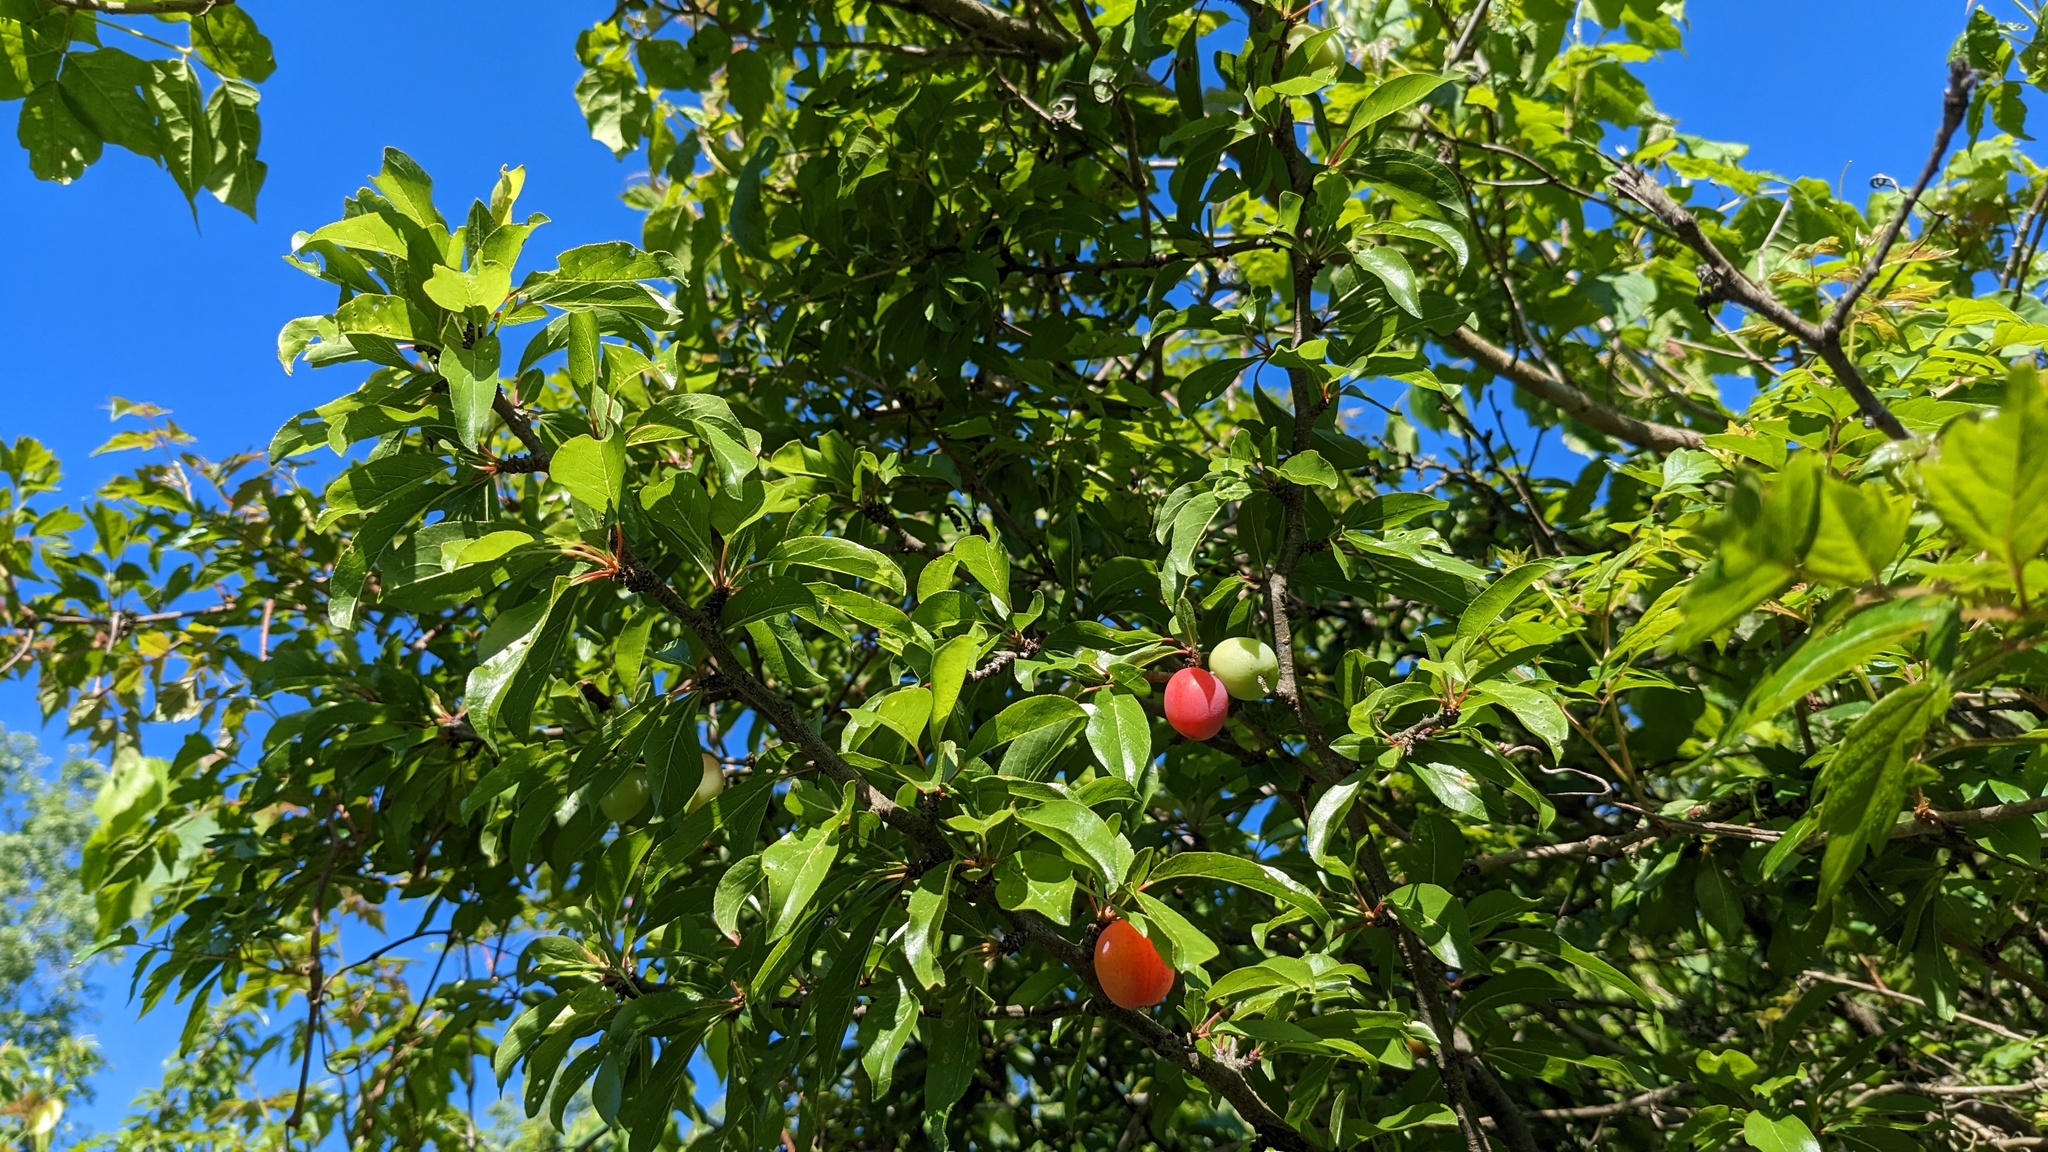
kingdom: Plantae
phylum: Tracheophyta
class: Magnoliopsida
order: Rosales
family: Rosaceae
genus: Prunus
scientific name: Prunus angustifolia
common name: Cherokee plum
